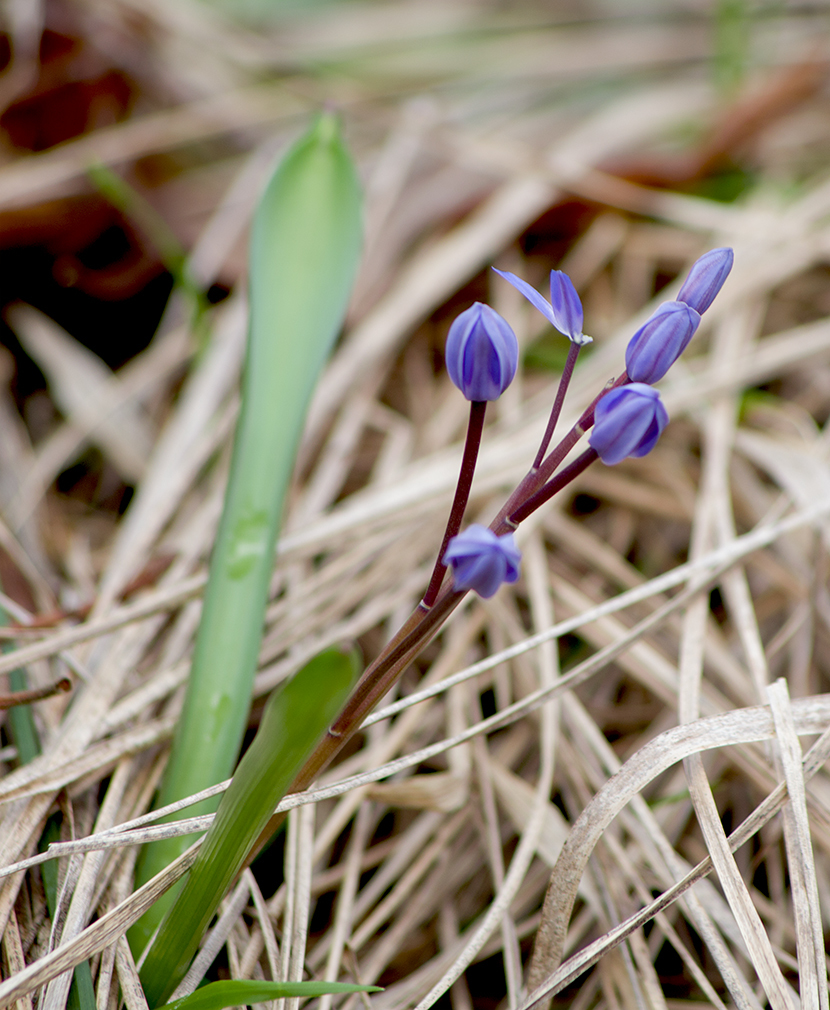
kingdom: Plantae
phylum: Tracheophyta
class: Liliopsida
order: Asparagales
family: Asparagaceae
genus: Scilla
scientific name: Scilla bifolia
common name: Alpine squill
